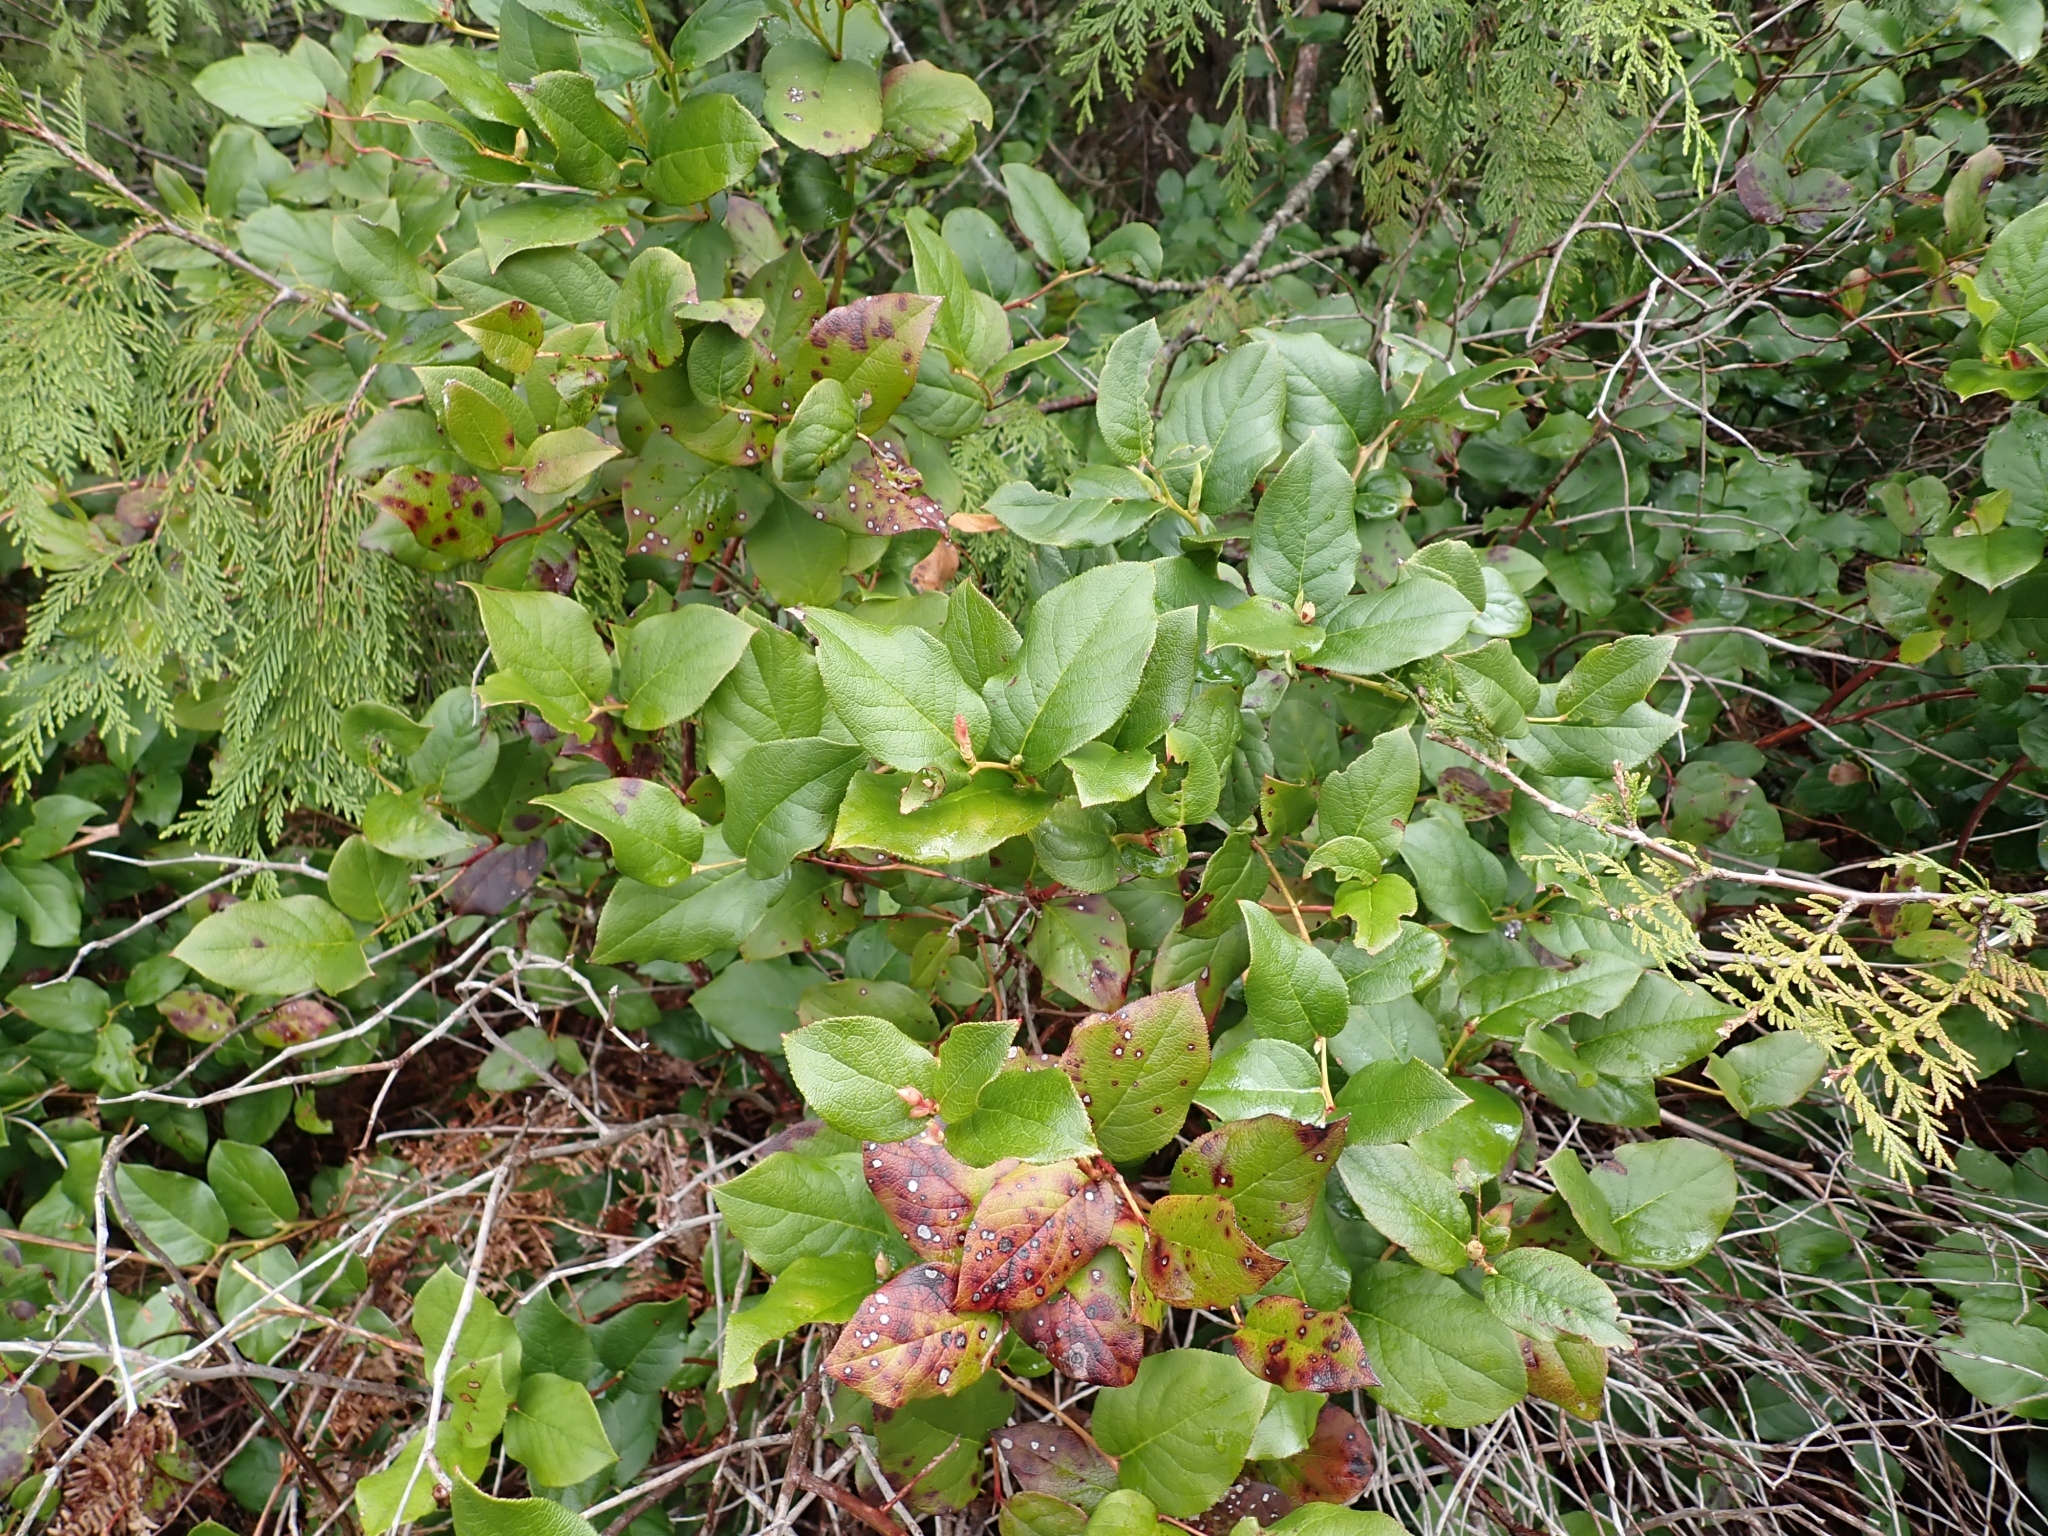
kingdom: Plantae
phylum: Tracheophyta
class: Magnoliopsida
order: Ericales
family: Ericaceae
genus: Gaultheria
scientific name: Gaultheria shallon
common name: Shallon
